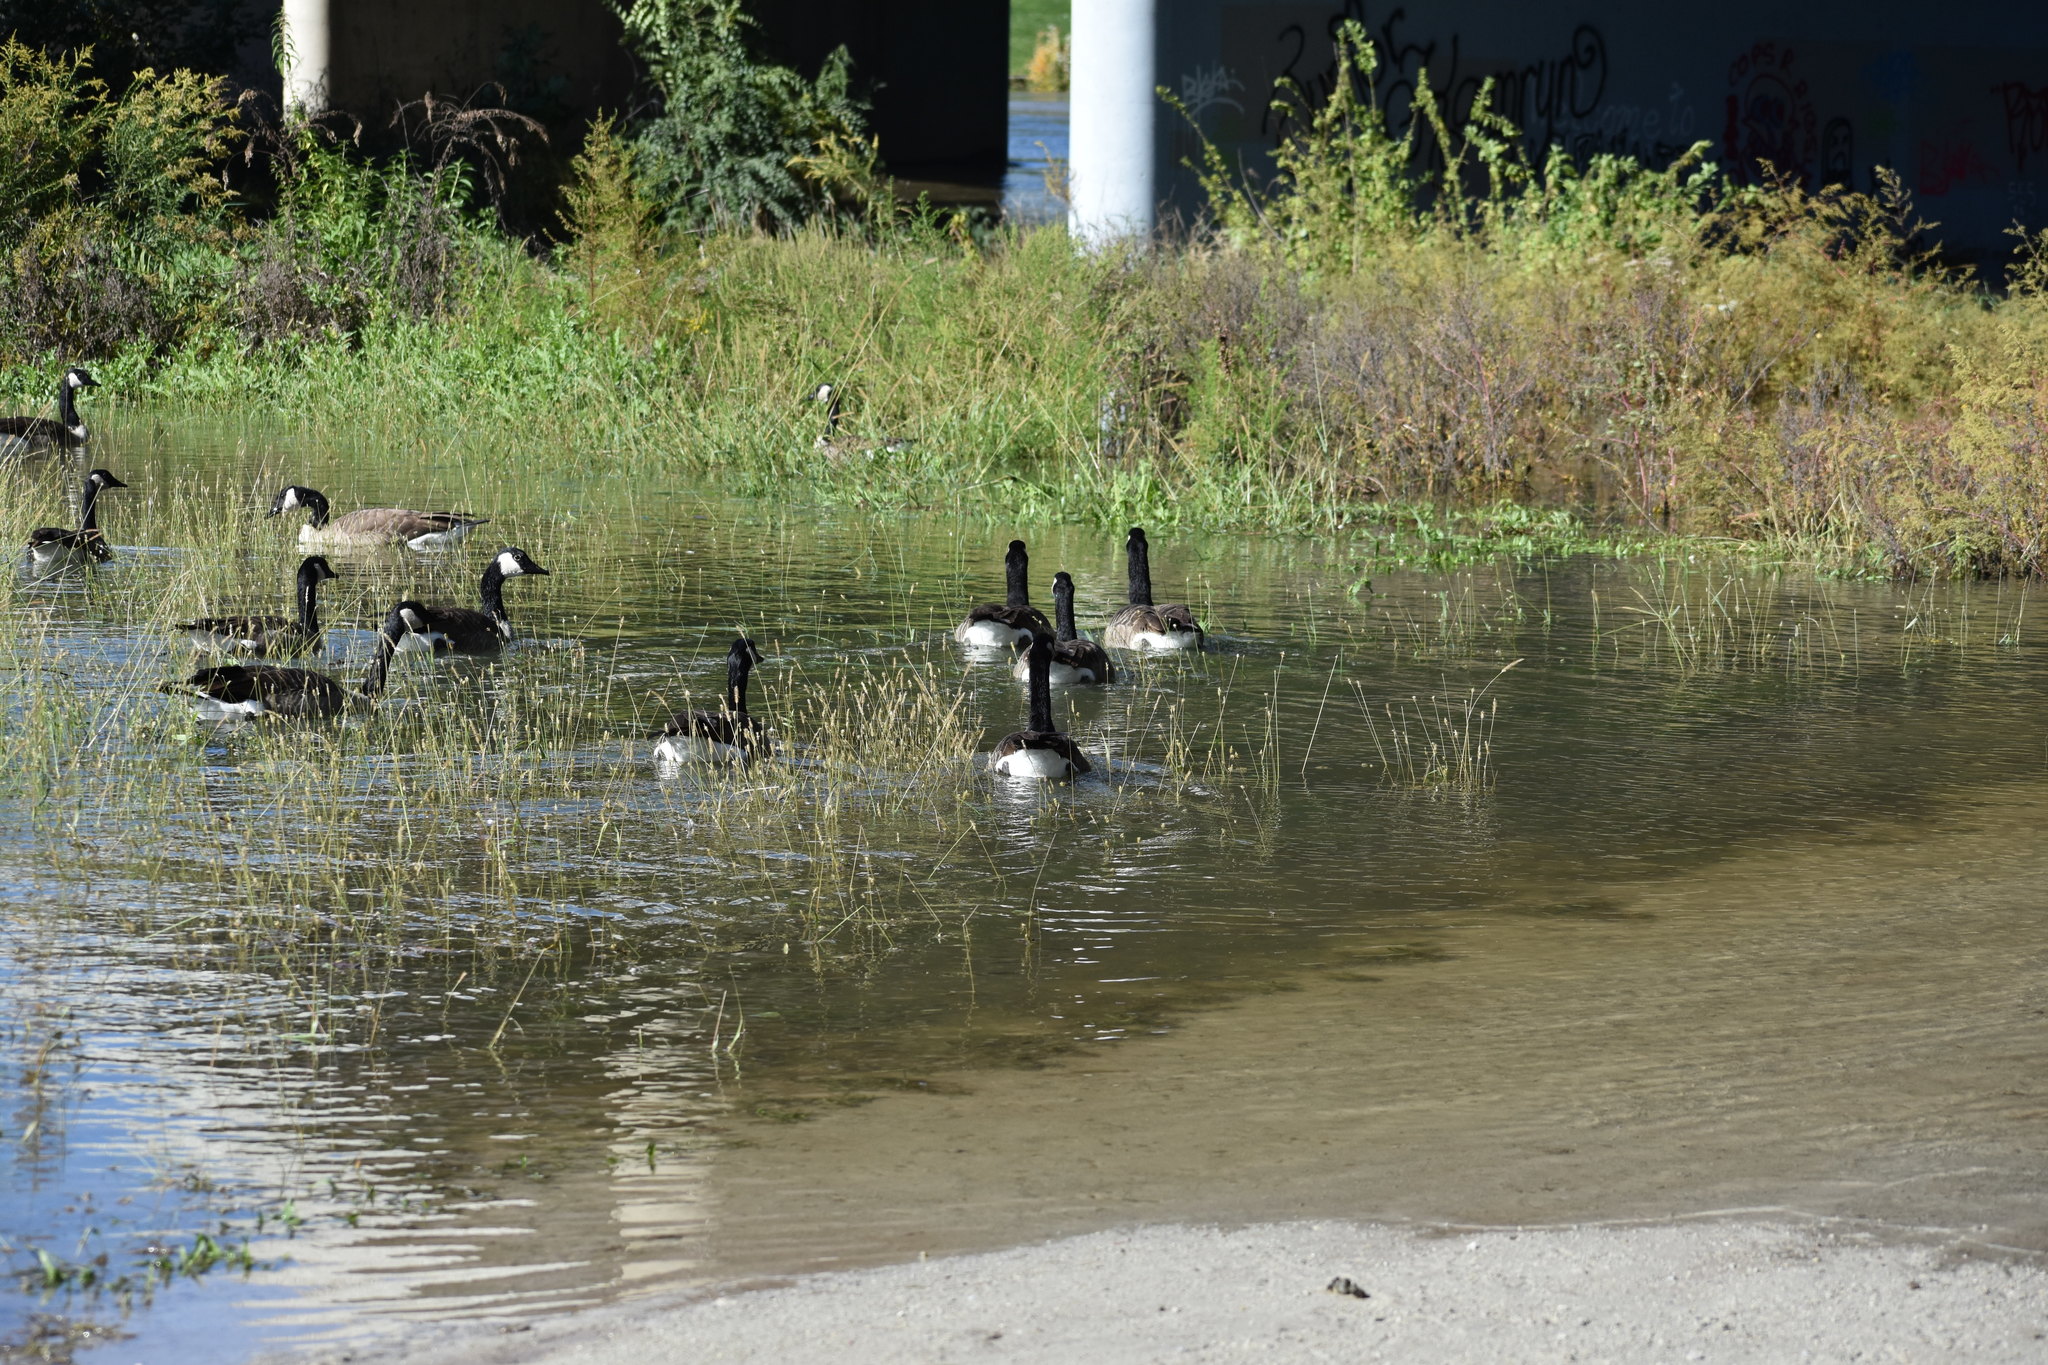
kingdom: Animalia
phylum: Chordata
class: Aves
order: Anseriformes
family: Anatidae
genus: Branta
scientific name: Branta canadensis
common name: Canada goose
